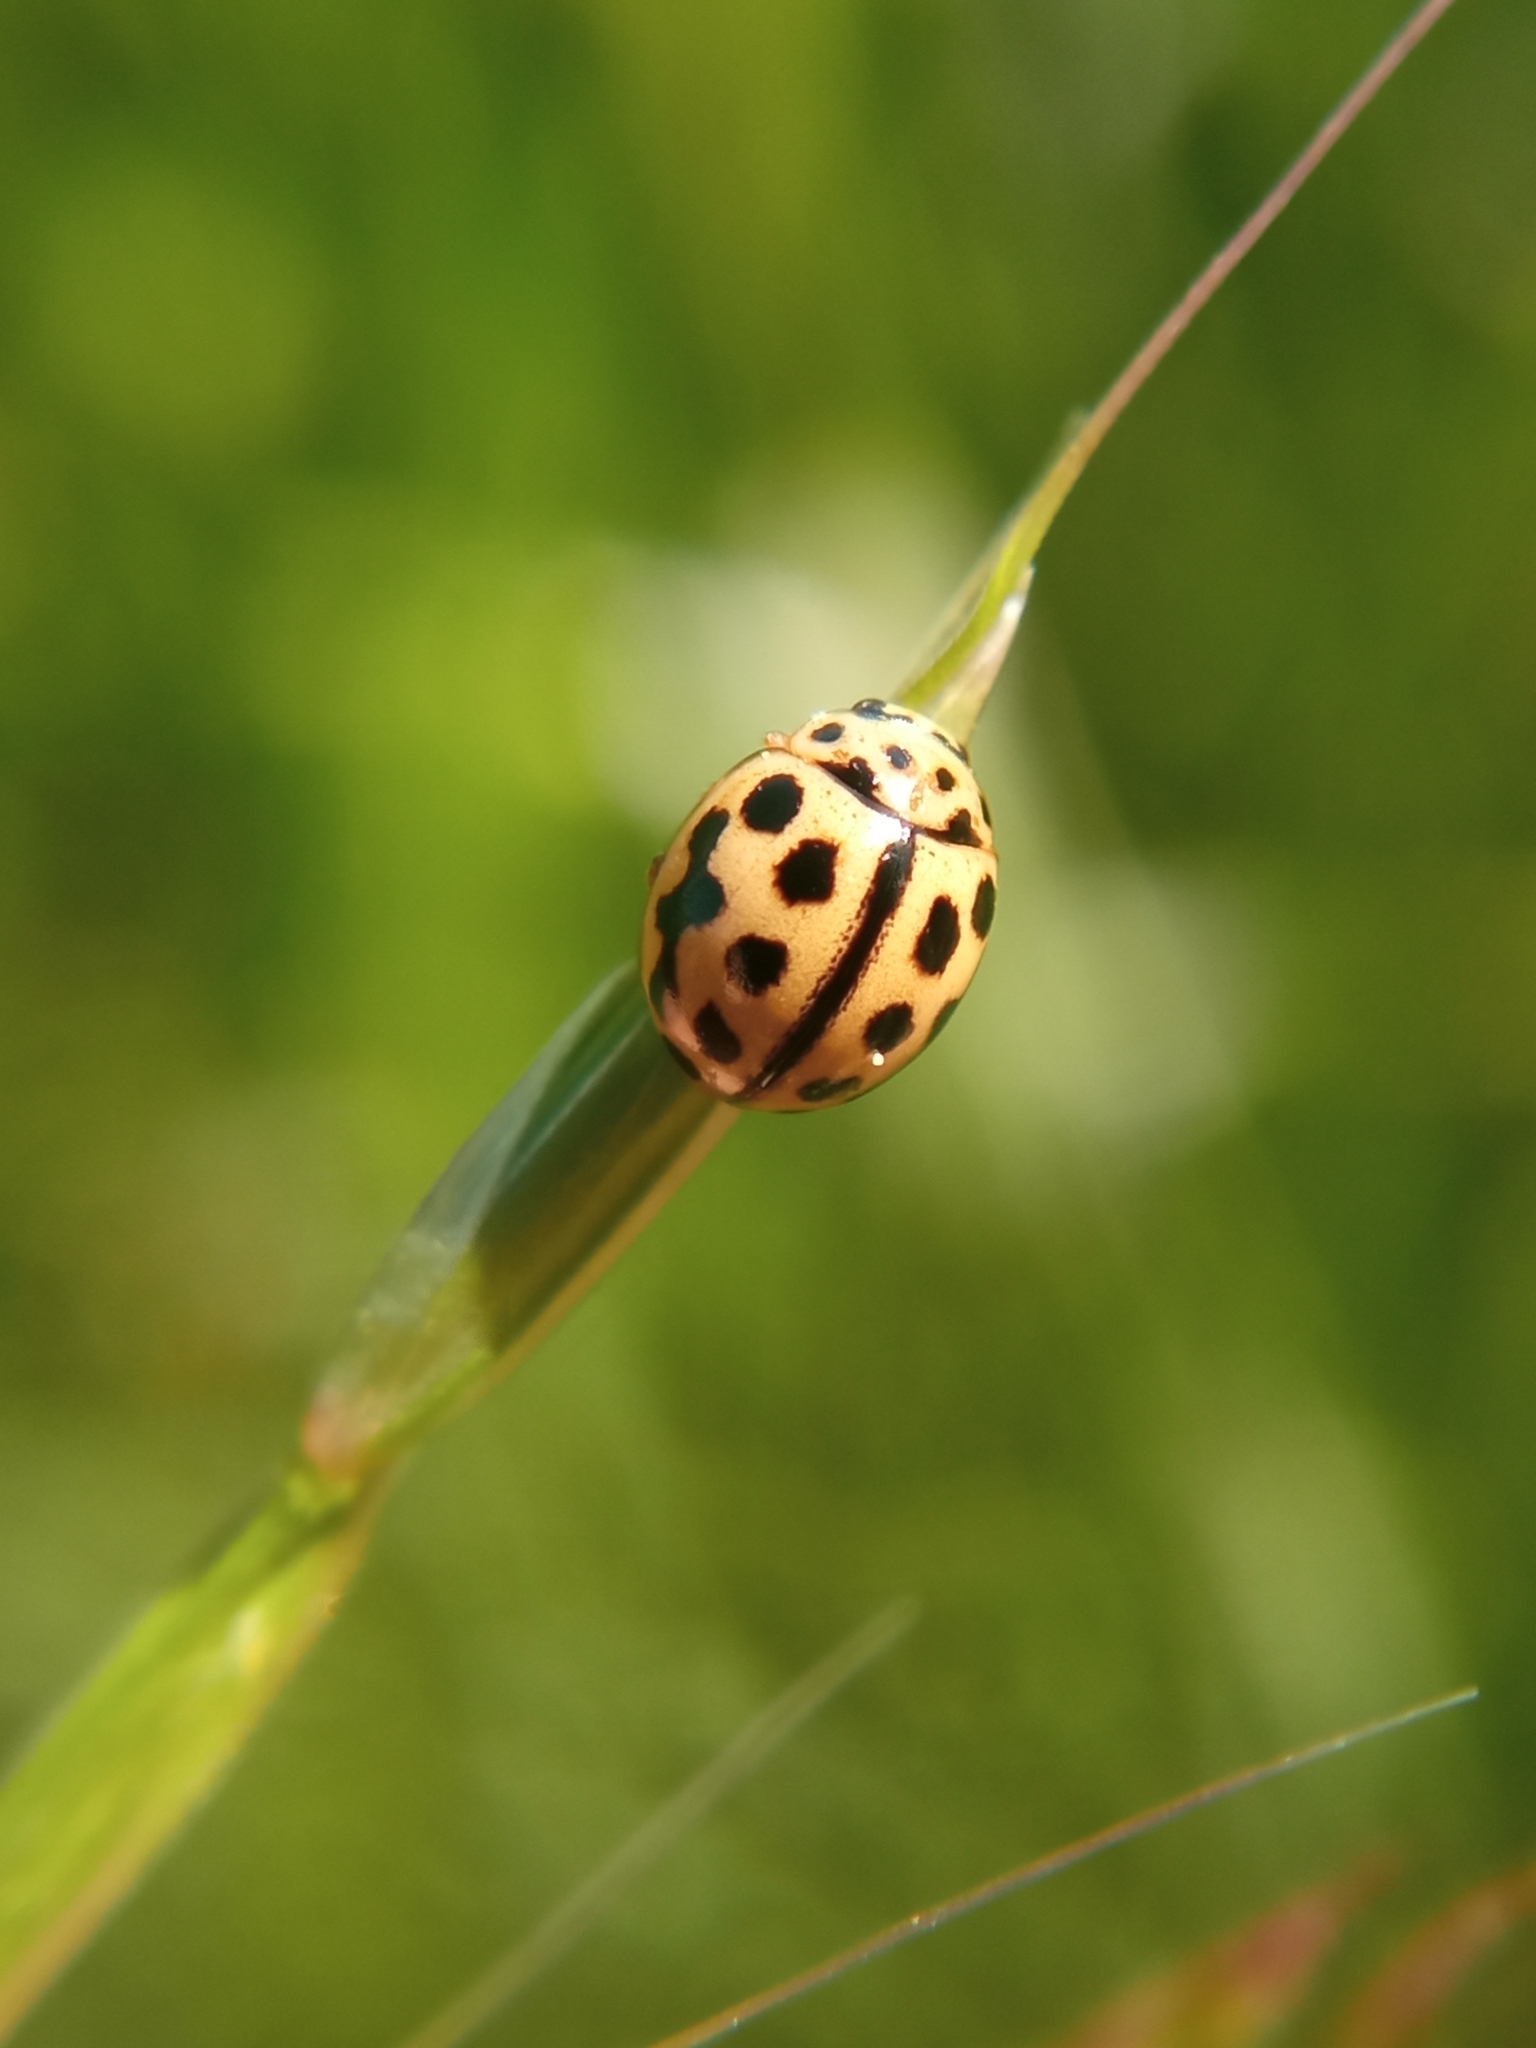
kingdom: Animalia
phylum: Arthropoda
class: Insecta
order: Coleoptera
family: Coccinellidae
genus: Tytthaspis
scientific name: Tytthaspis sedecimpunctata
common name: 16-spot ladybird
